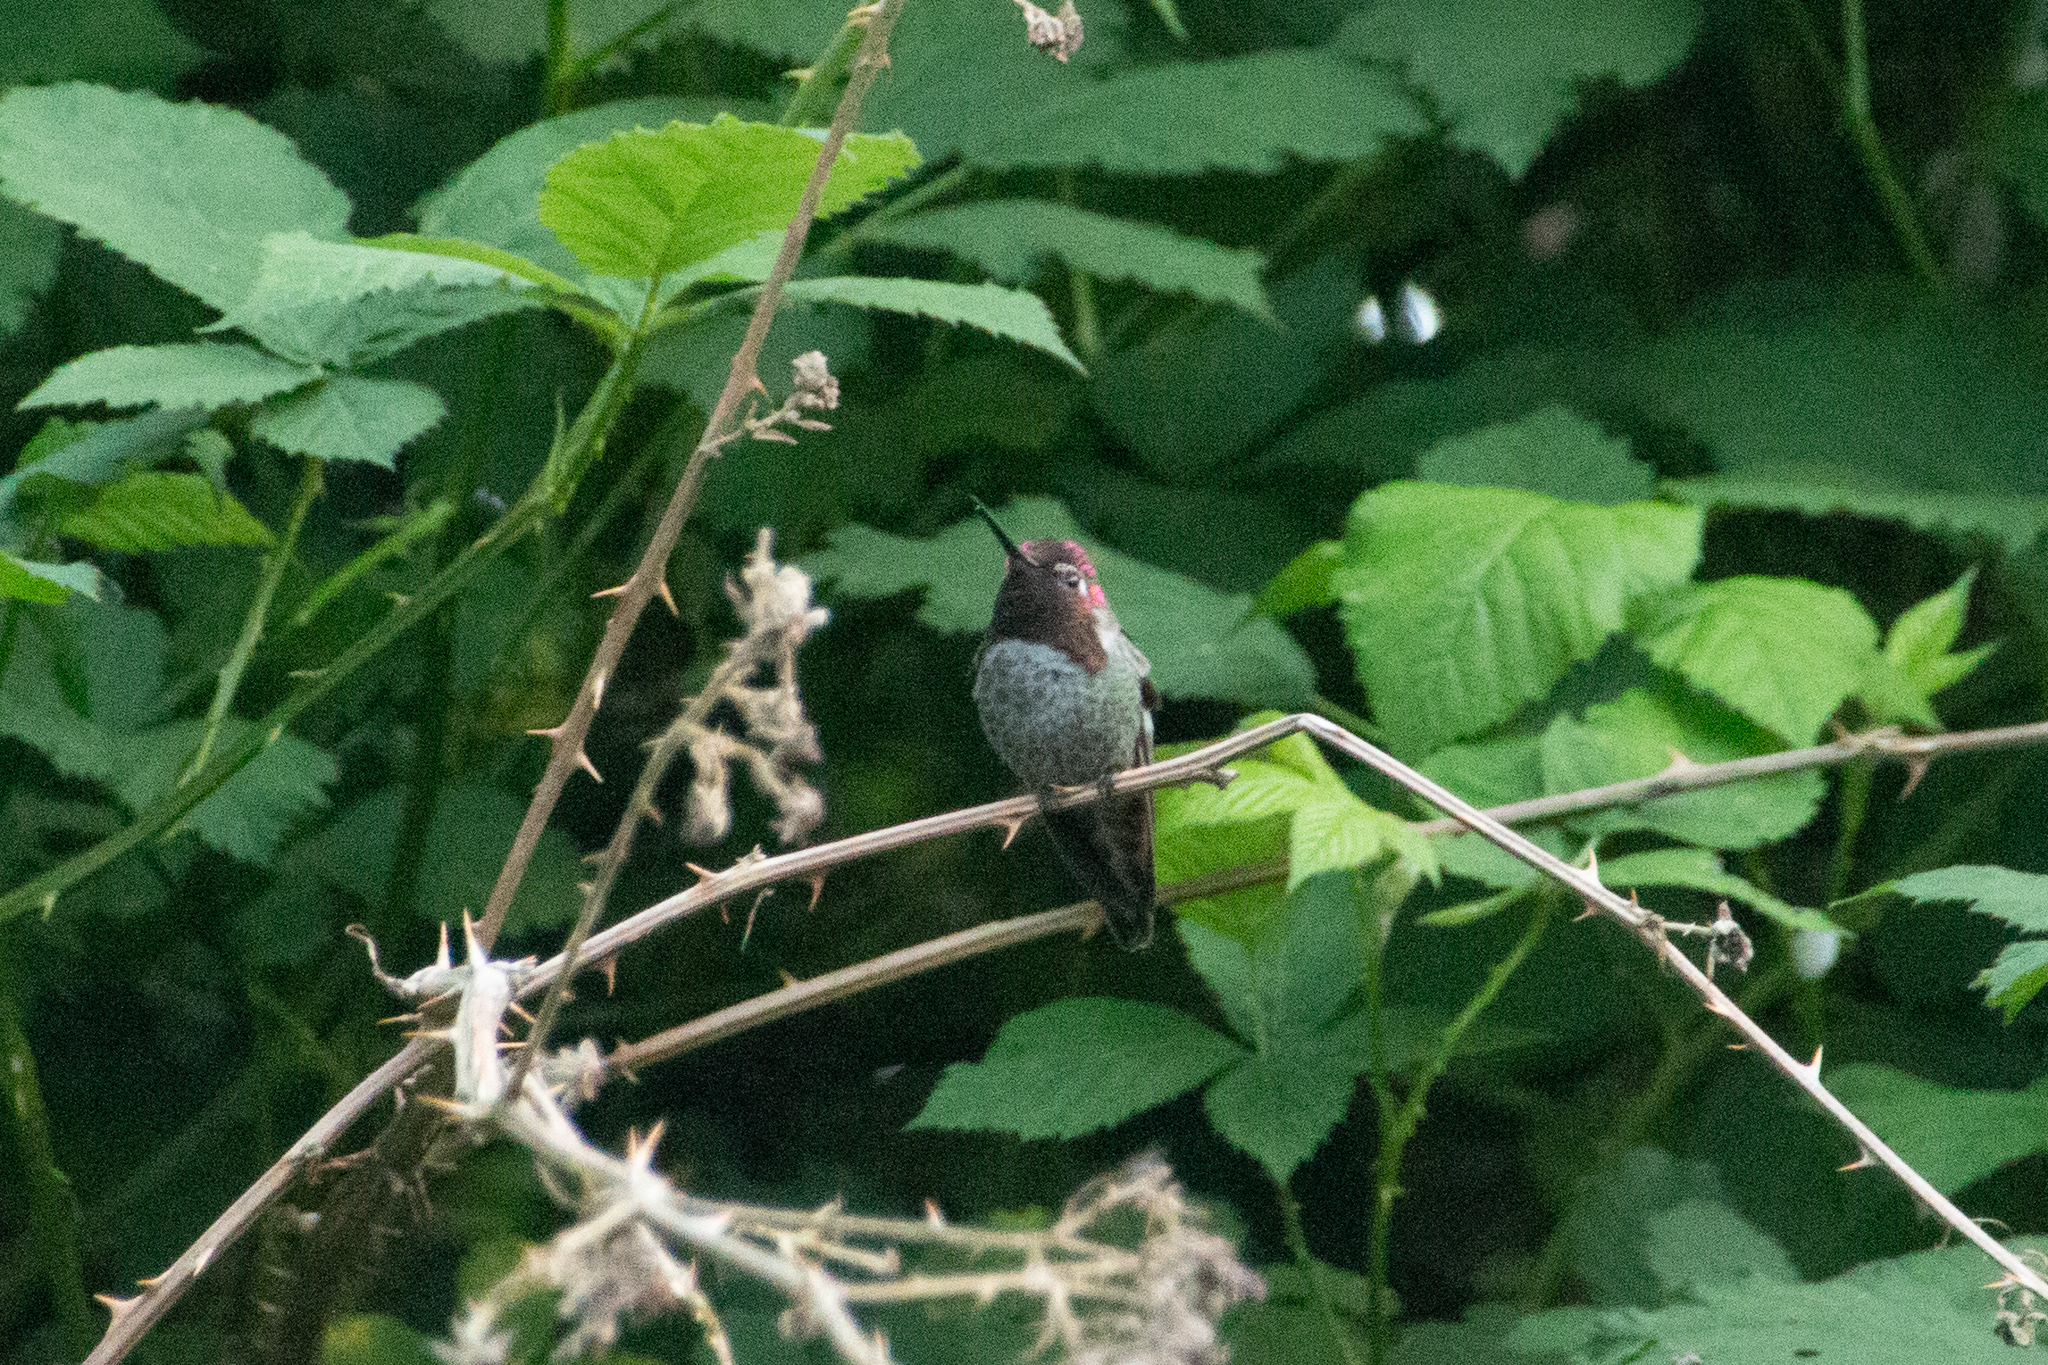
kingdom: Animalia
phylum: Chordata
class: Aves
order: Apodiformes
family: Trochilidae
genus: Calypte
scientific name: Calypte anna
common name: Anna's hummingbird
